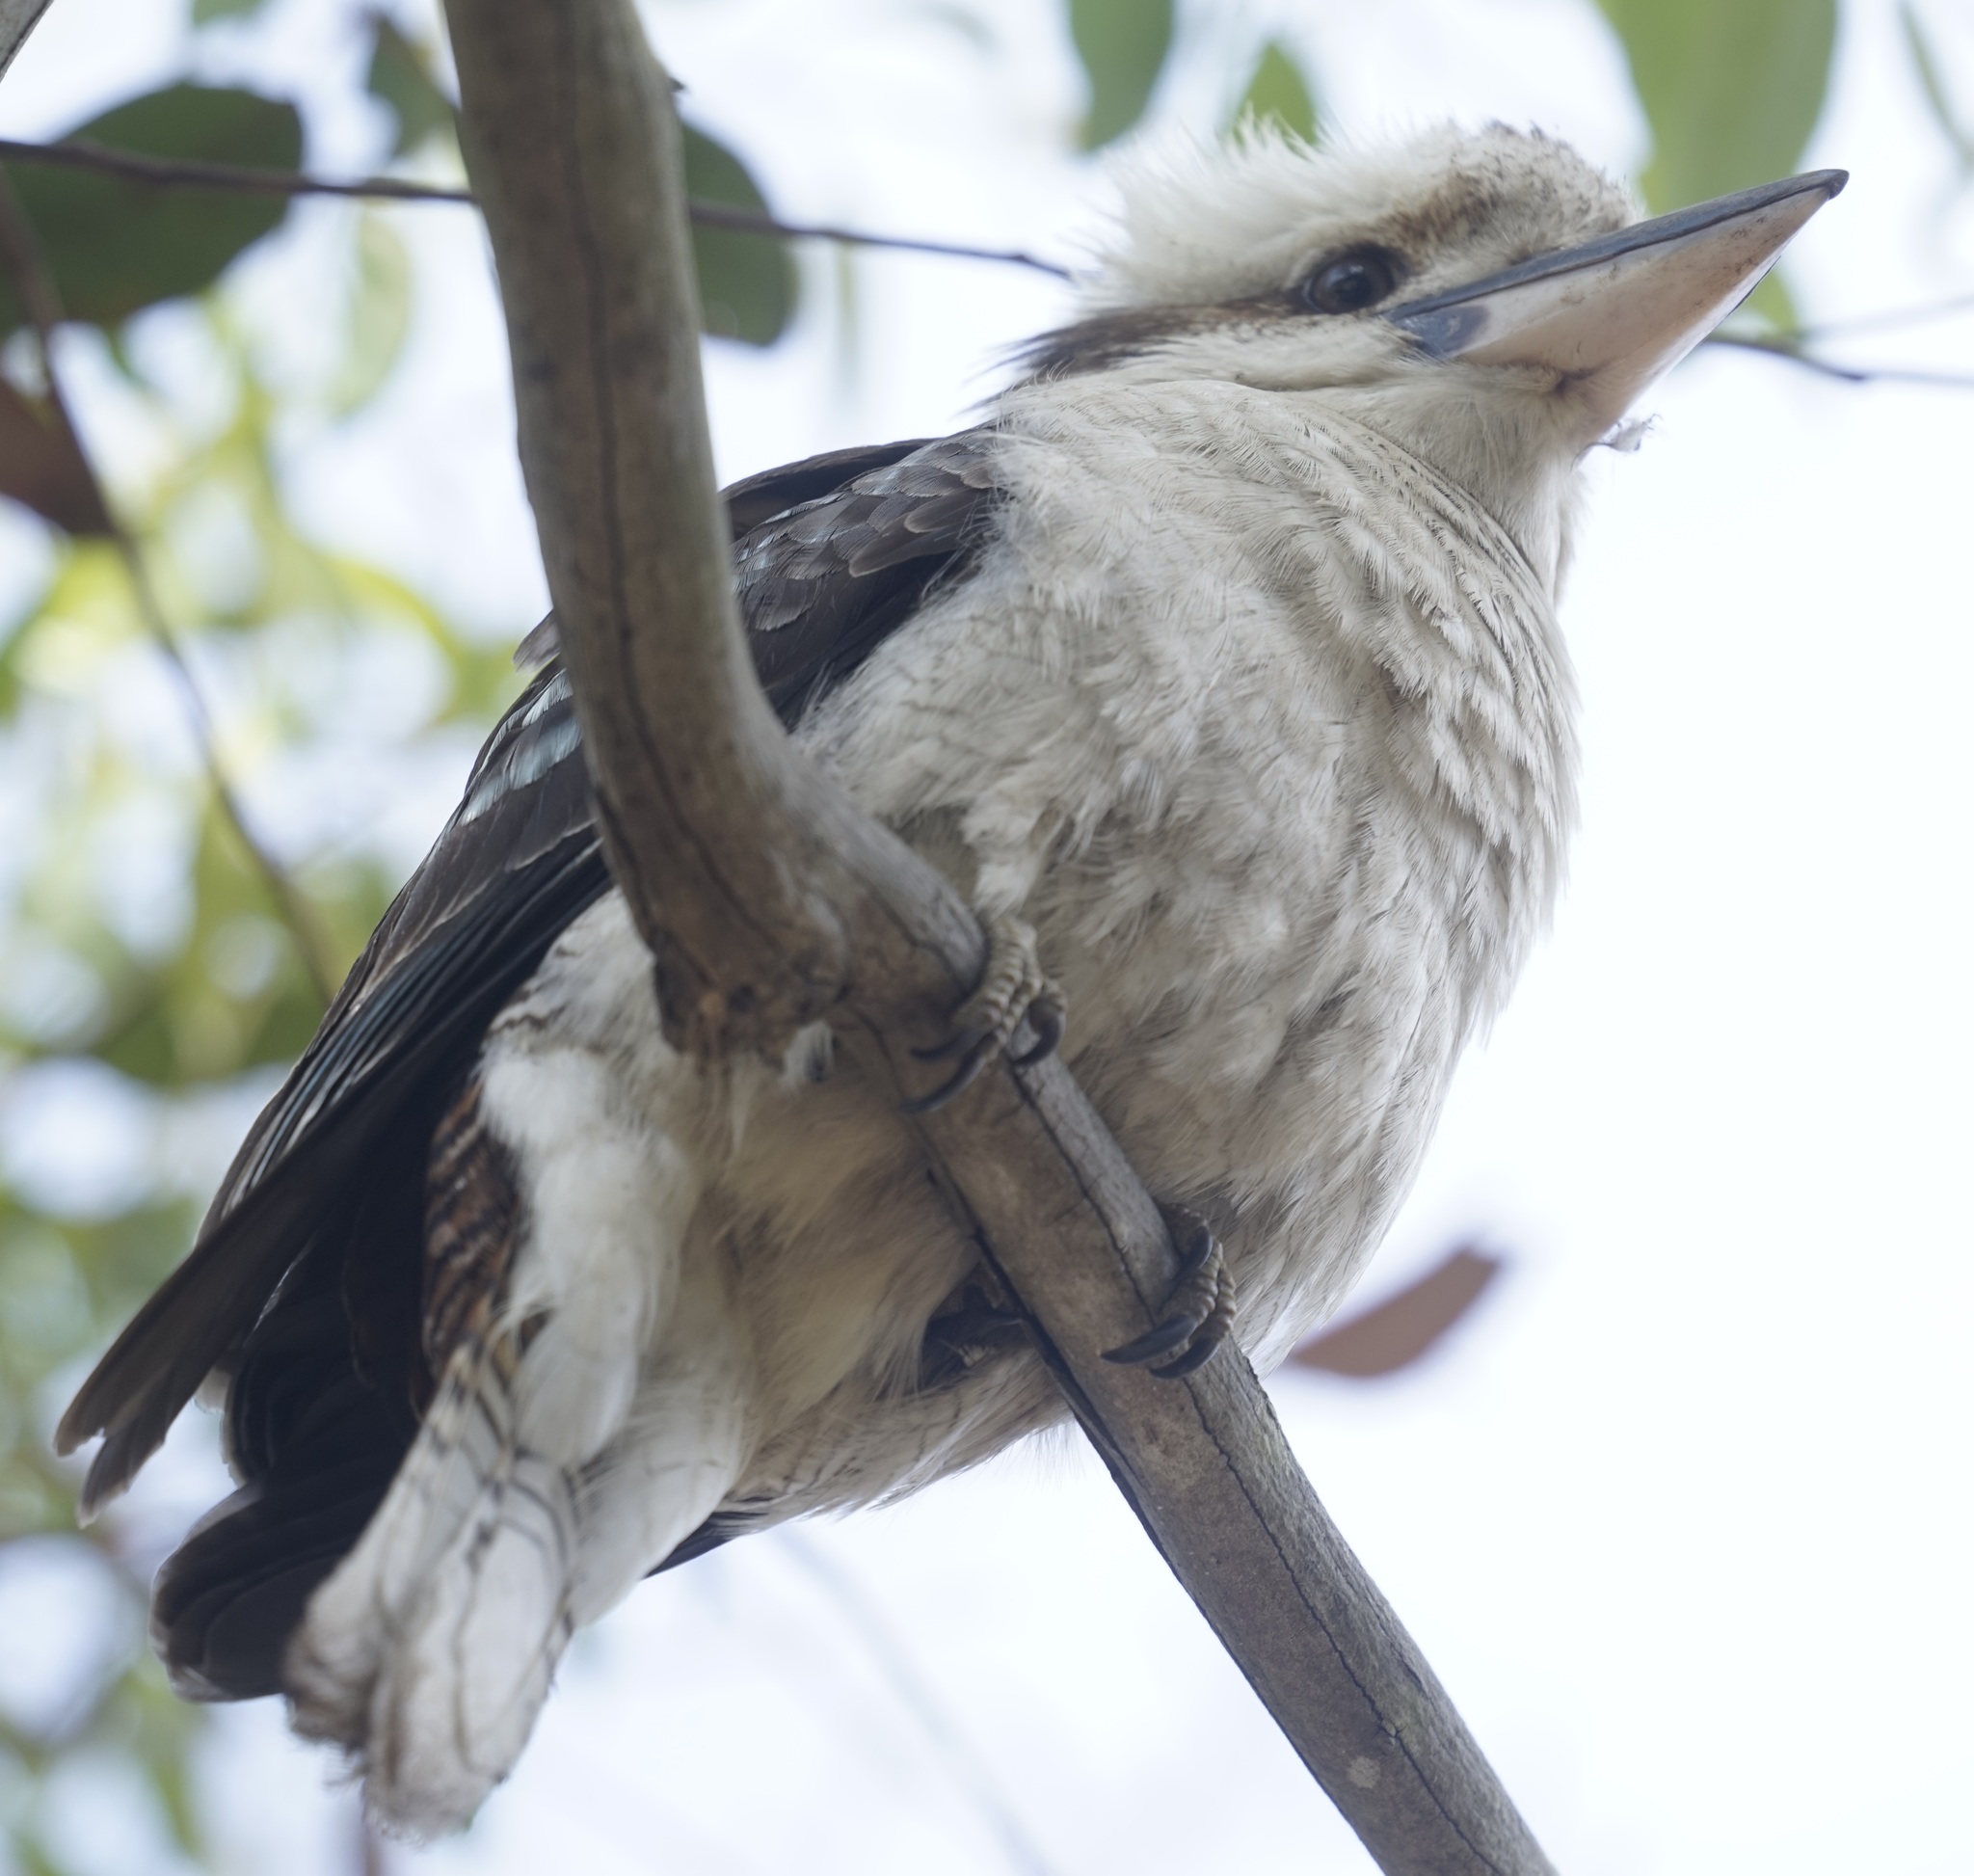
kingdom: Animalia
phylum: Chordata
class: Aves
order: Coraciiformes
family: Alcedinidae
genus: Dacelo
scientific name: Dacelo novaeguineae
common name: Laughing kookaburra
